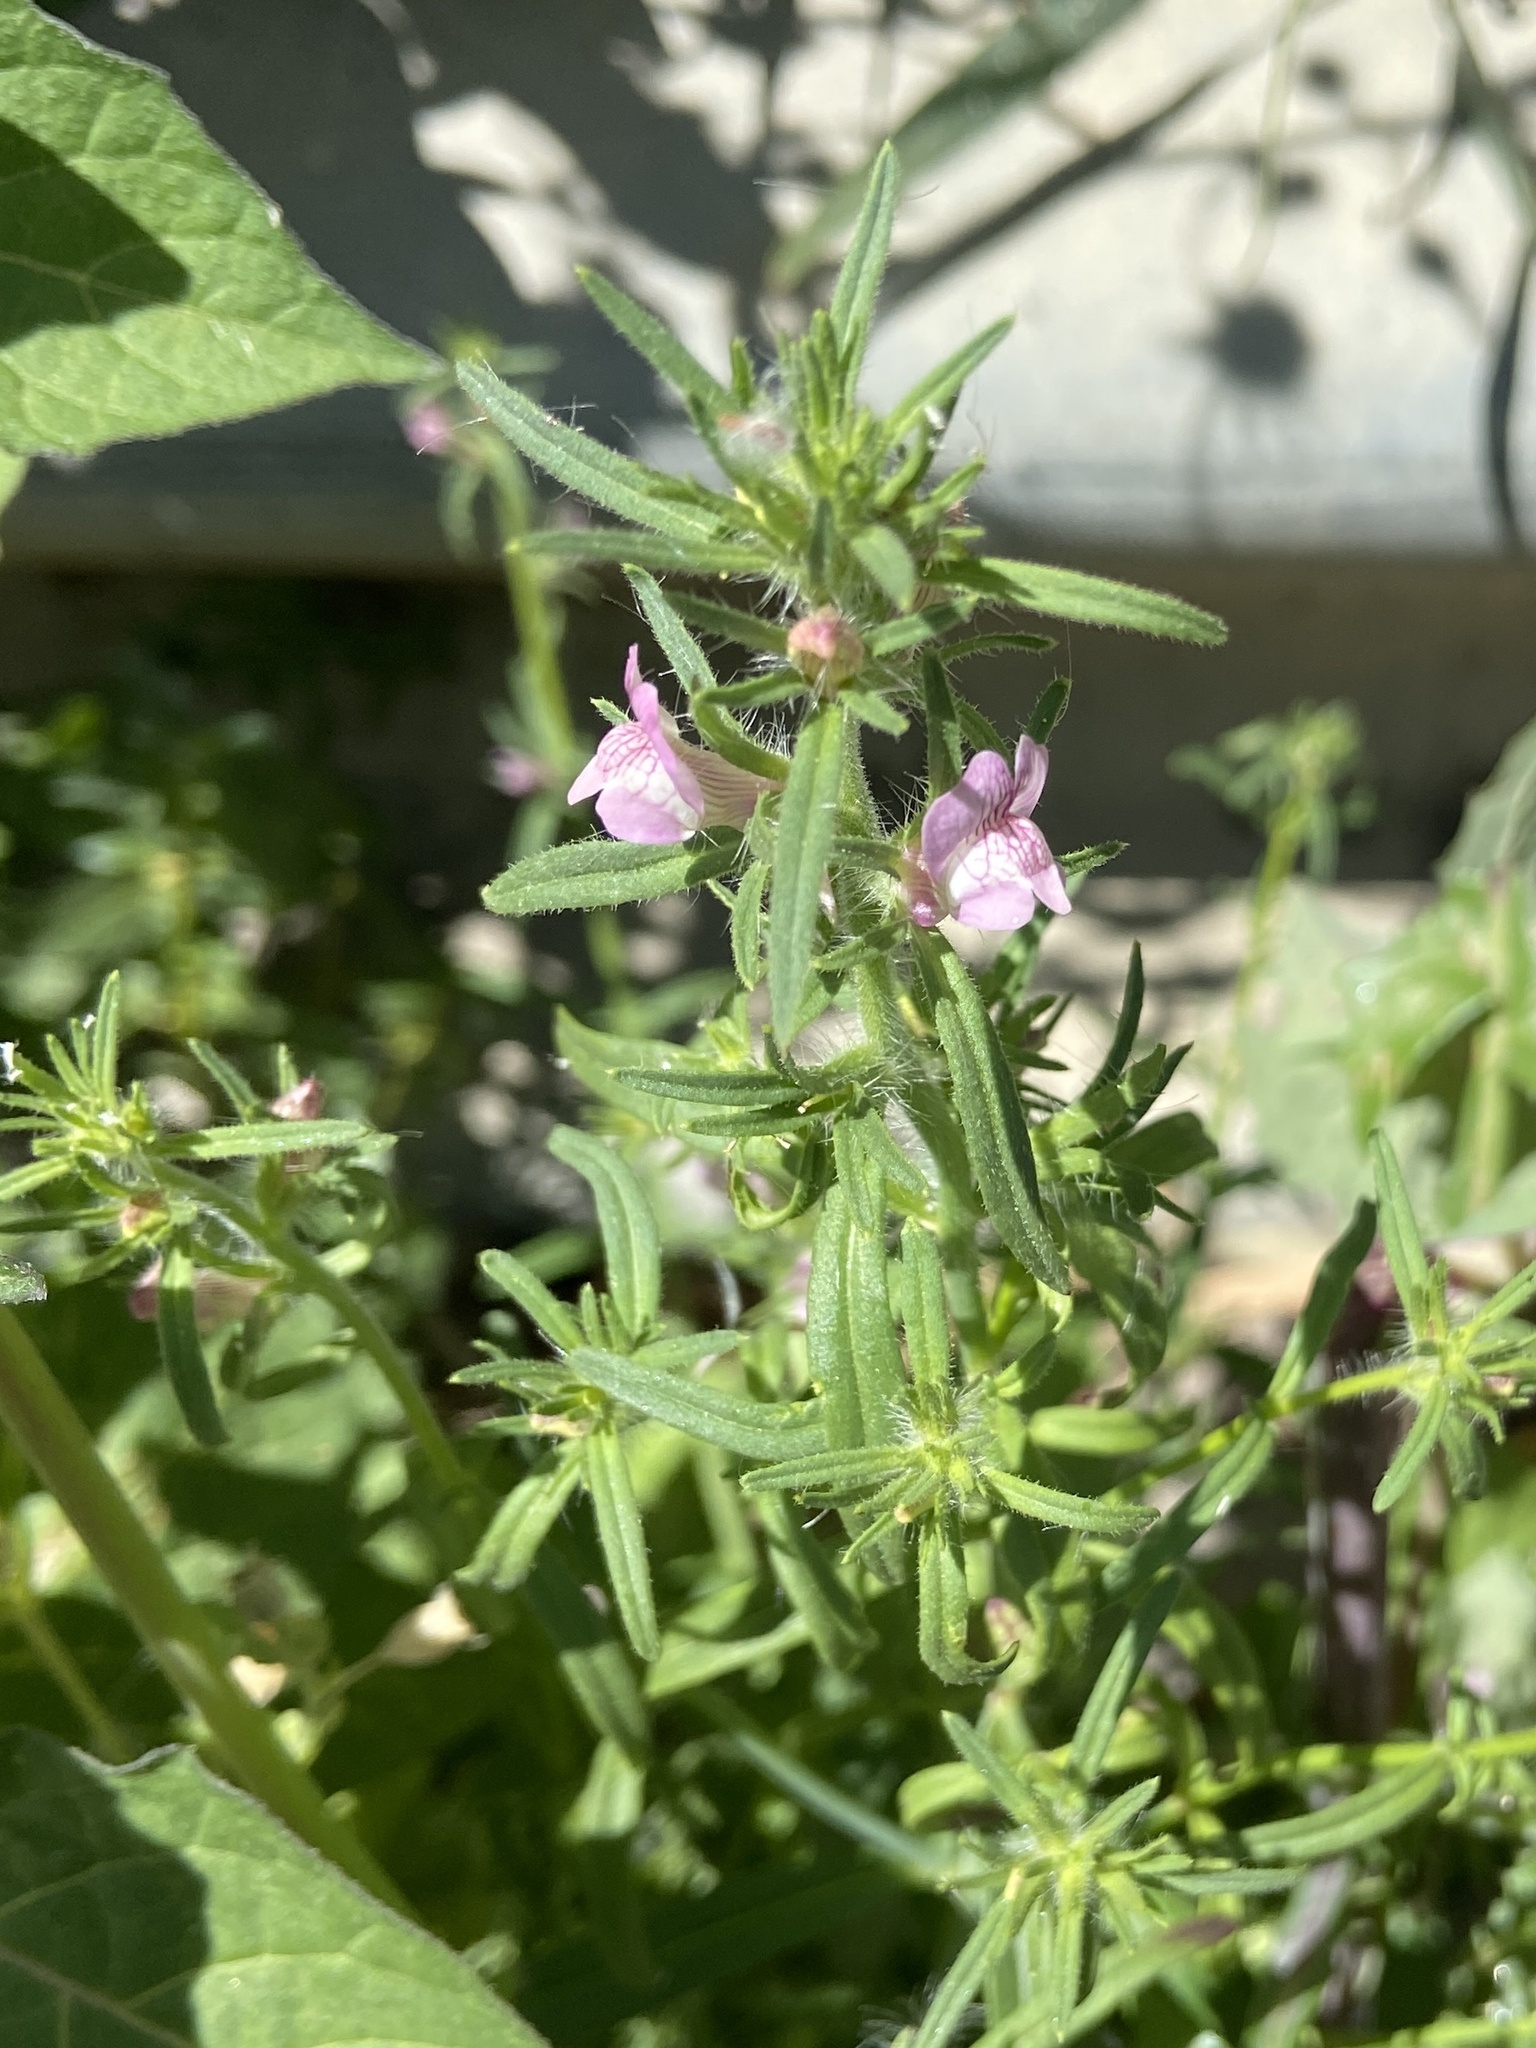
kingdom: Plantae
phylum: Tracheophyta
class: Magnoliopsida
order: Lamiales
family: Plantaginaceae
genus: Misopates
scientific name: Misopates orontium
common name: Weasel's-snout
